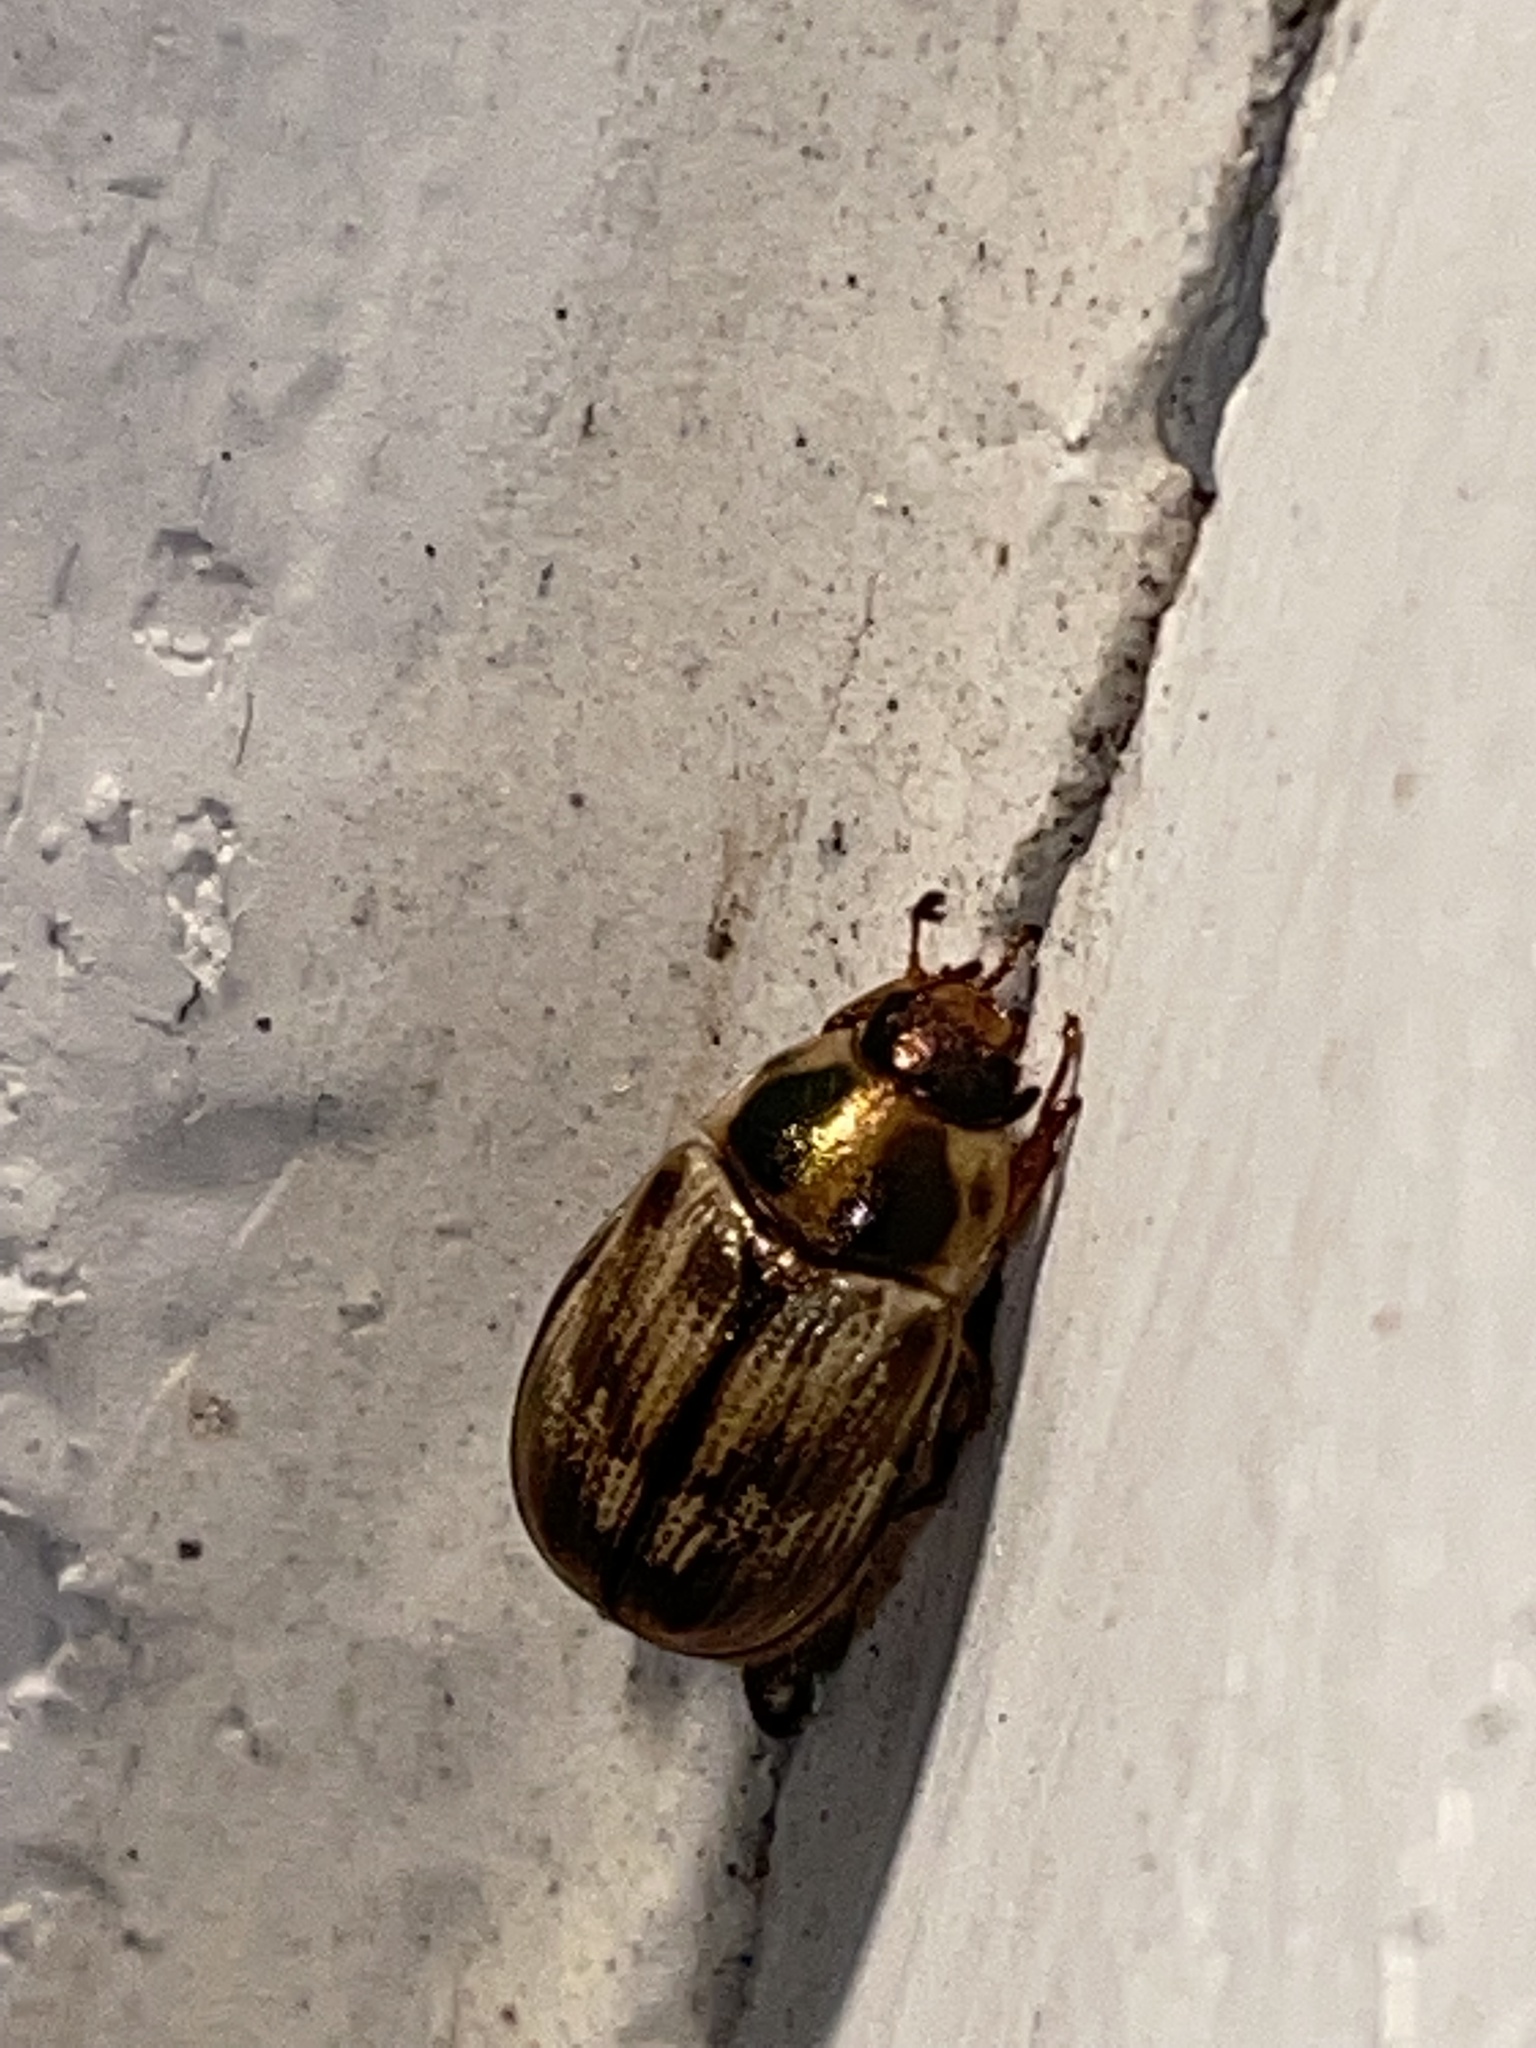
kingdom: Animalia
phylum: Arthropoda
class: Insecta
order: Coleoptera
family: Scarabaeidae
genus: Exomala
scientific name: Exomala orientalis
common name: Oriental beetle
